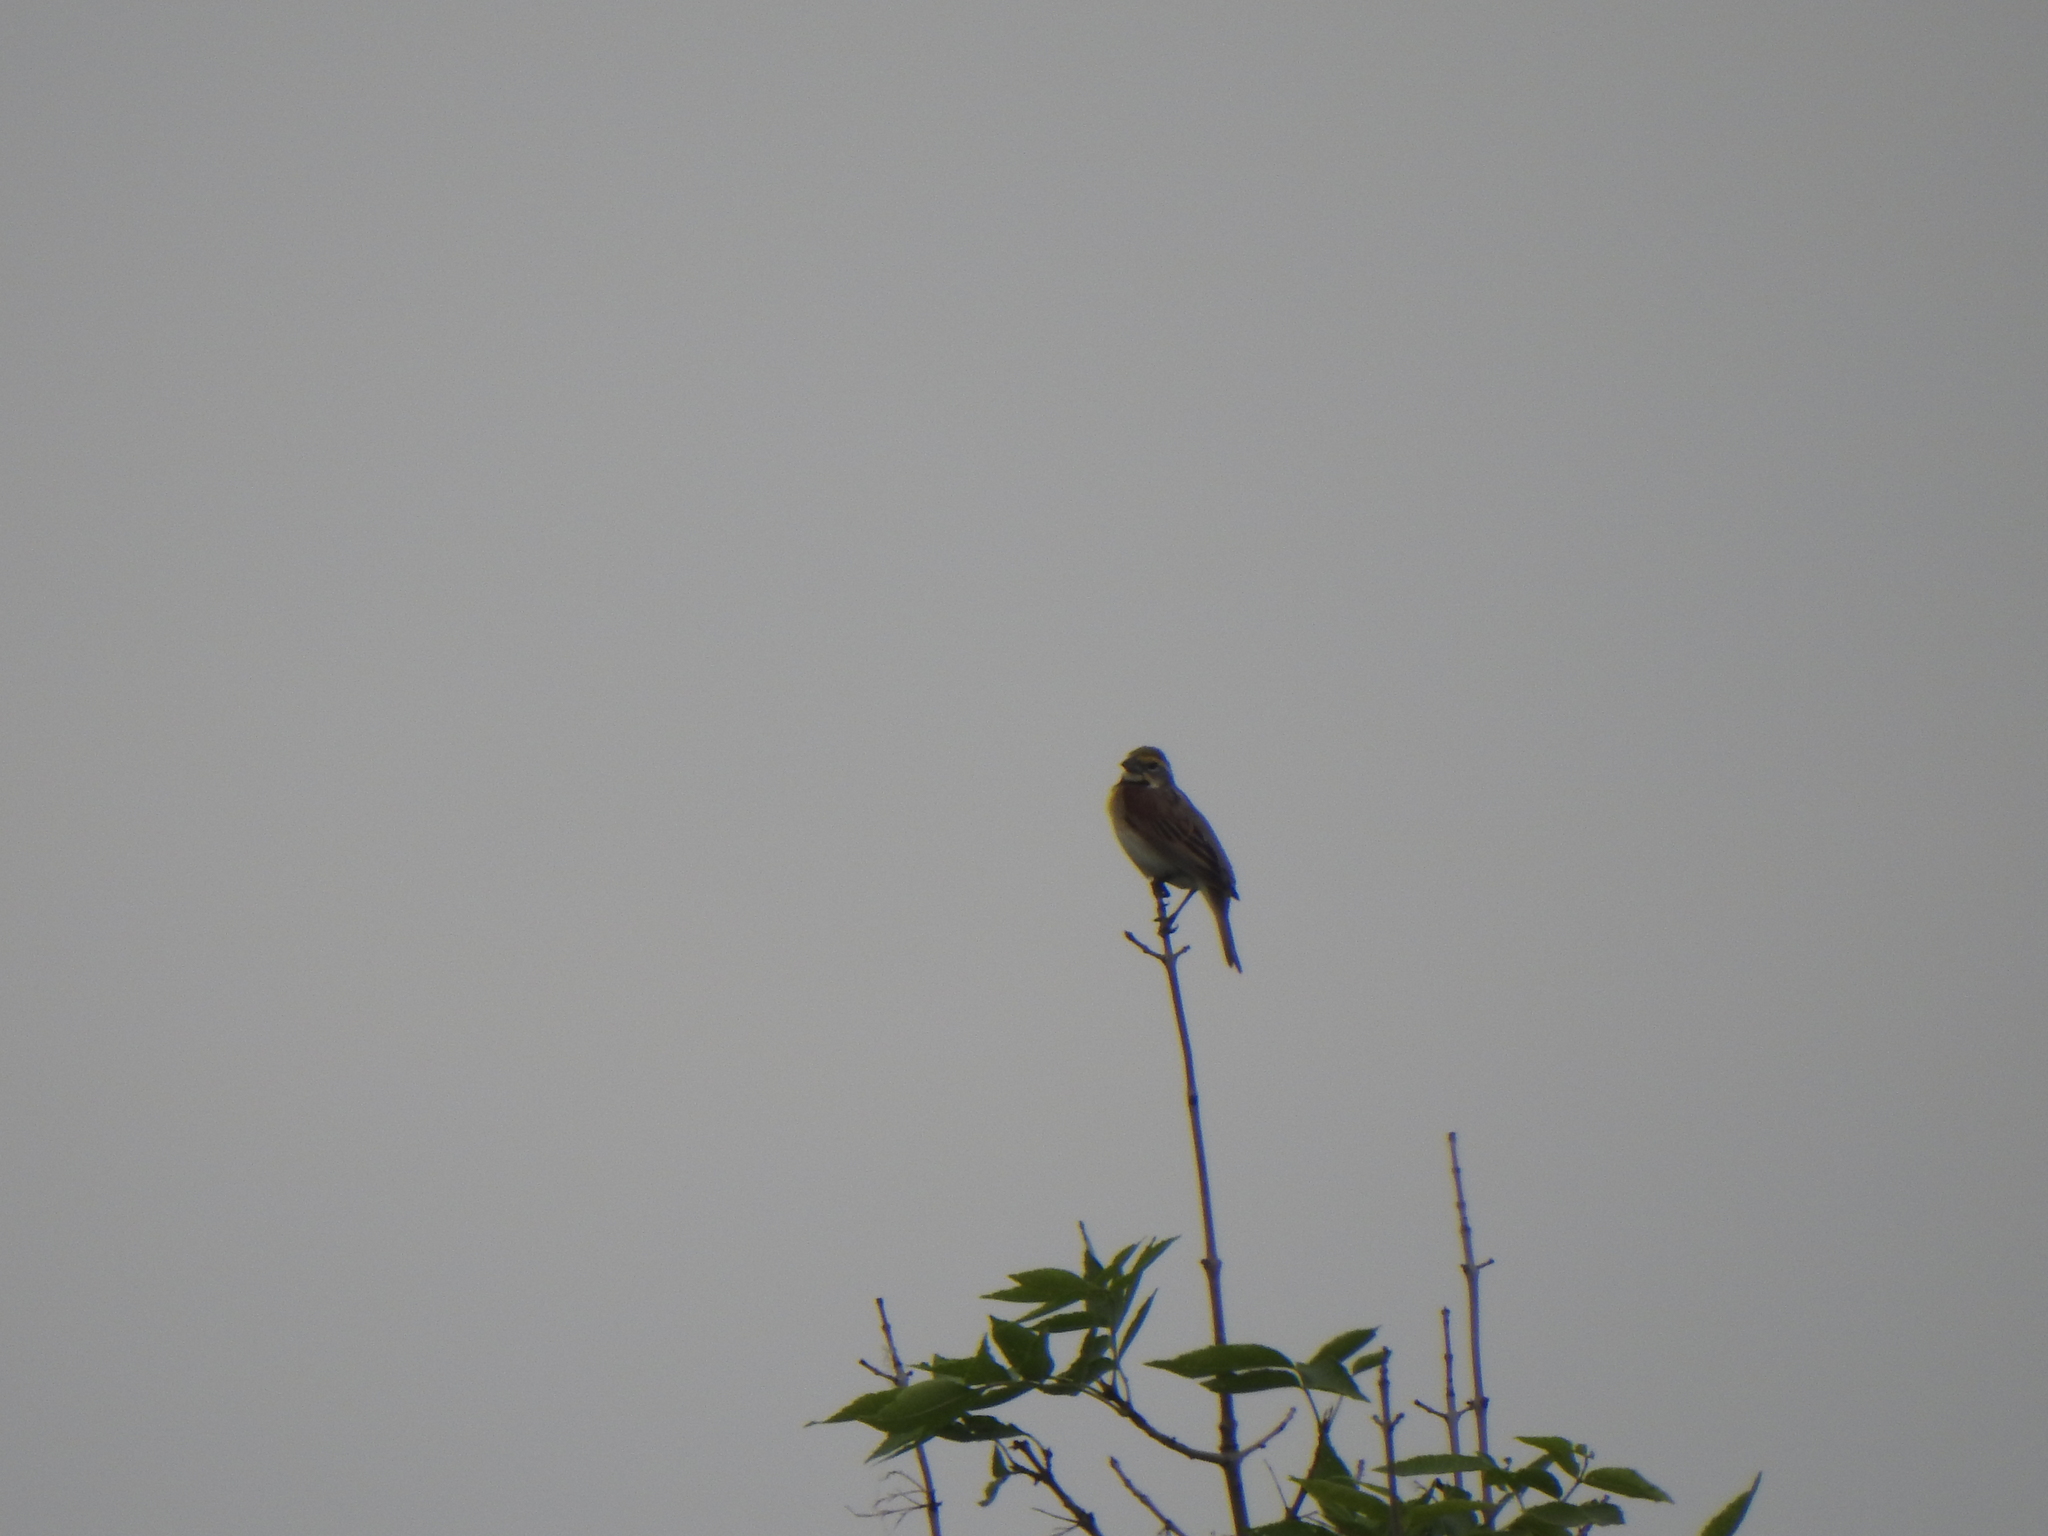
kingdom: Animalia
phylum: Chordata
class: Aves
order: Passeriformes
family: Cardinalidae
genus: Spiza
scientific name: Spiza americana
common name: Dickcissel
